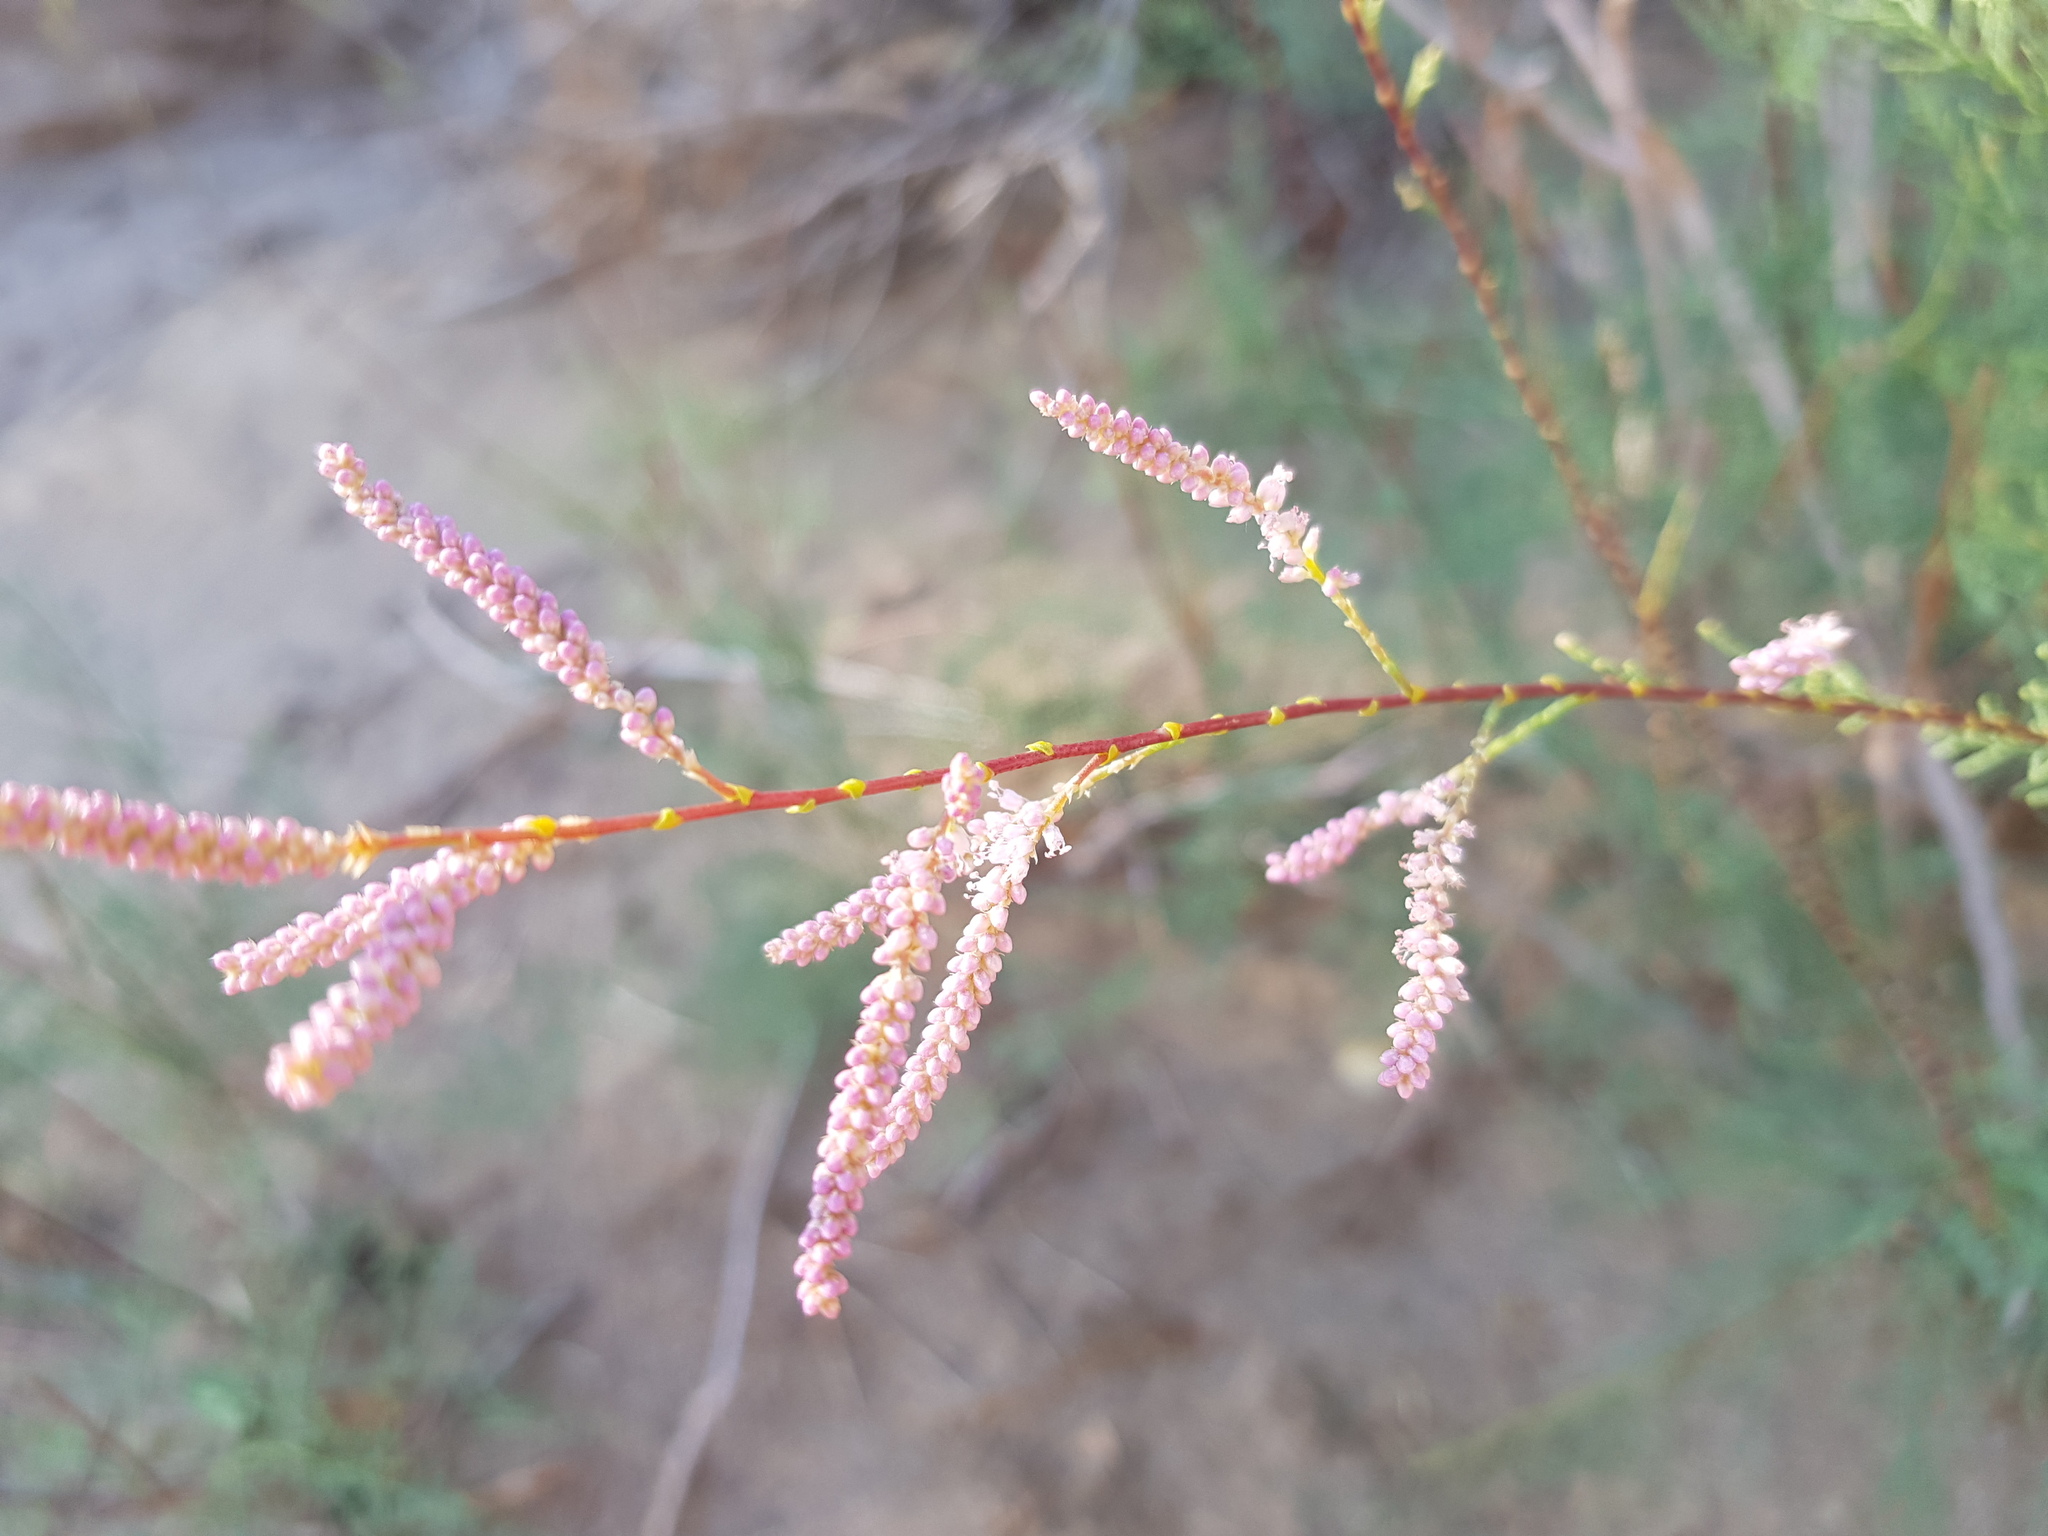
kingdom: Plantae
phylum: Tracheophyta
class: Magnoliopsida
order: Caryophyllales
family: Tamaricaceae
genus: Tamarix
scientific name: Tamarix gracilis
